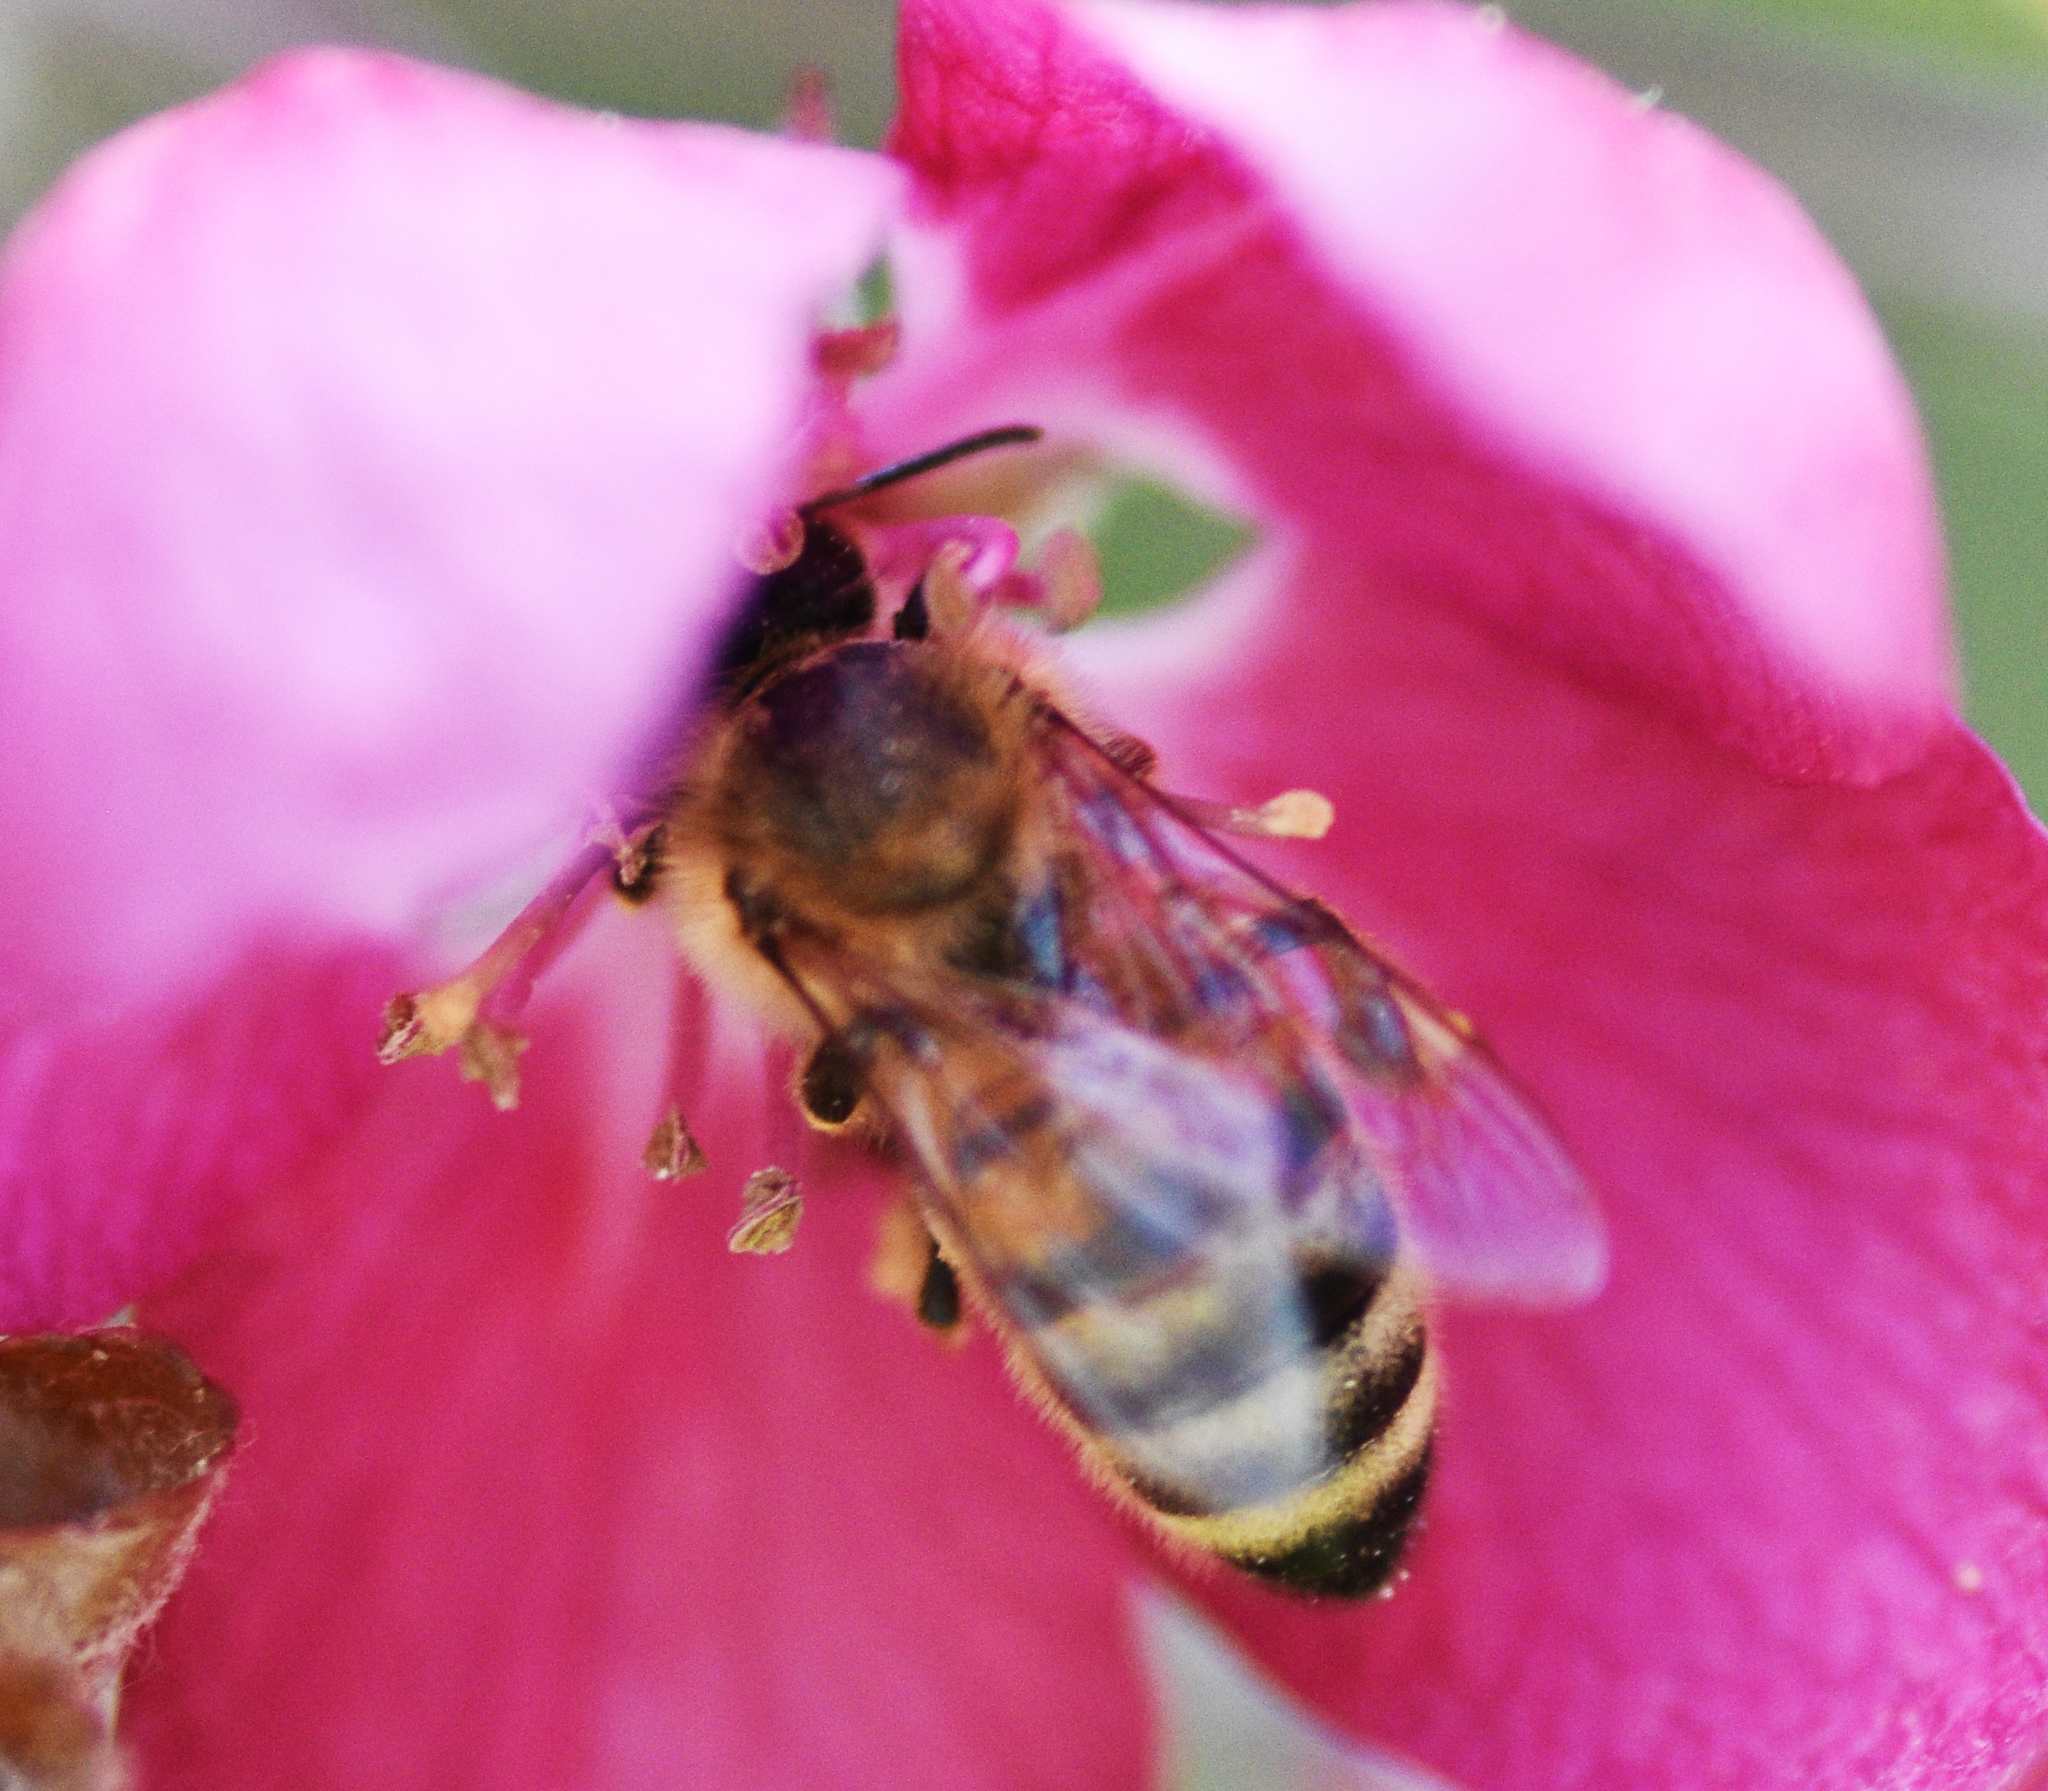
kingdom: Animalia
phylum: Arthropoda
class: Insecta
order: Hymenoptera
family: Apidae
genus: Apis
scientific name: Apis mellifera
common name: Honey bee
